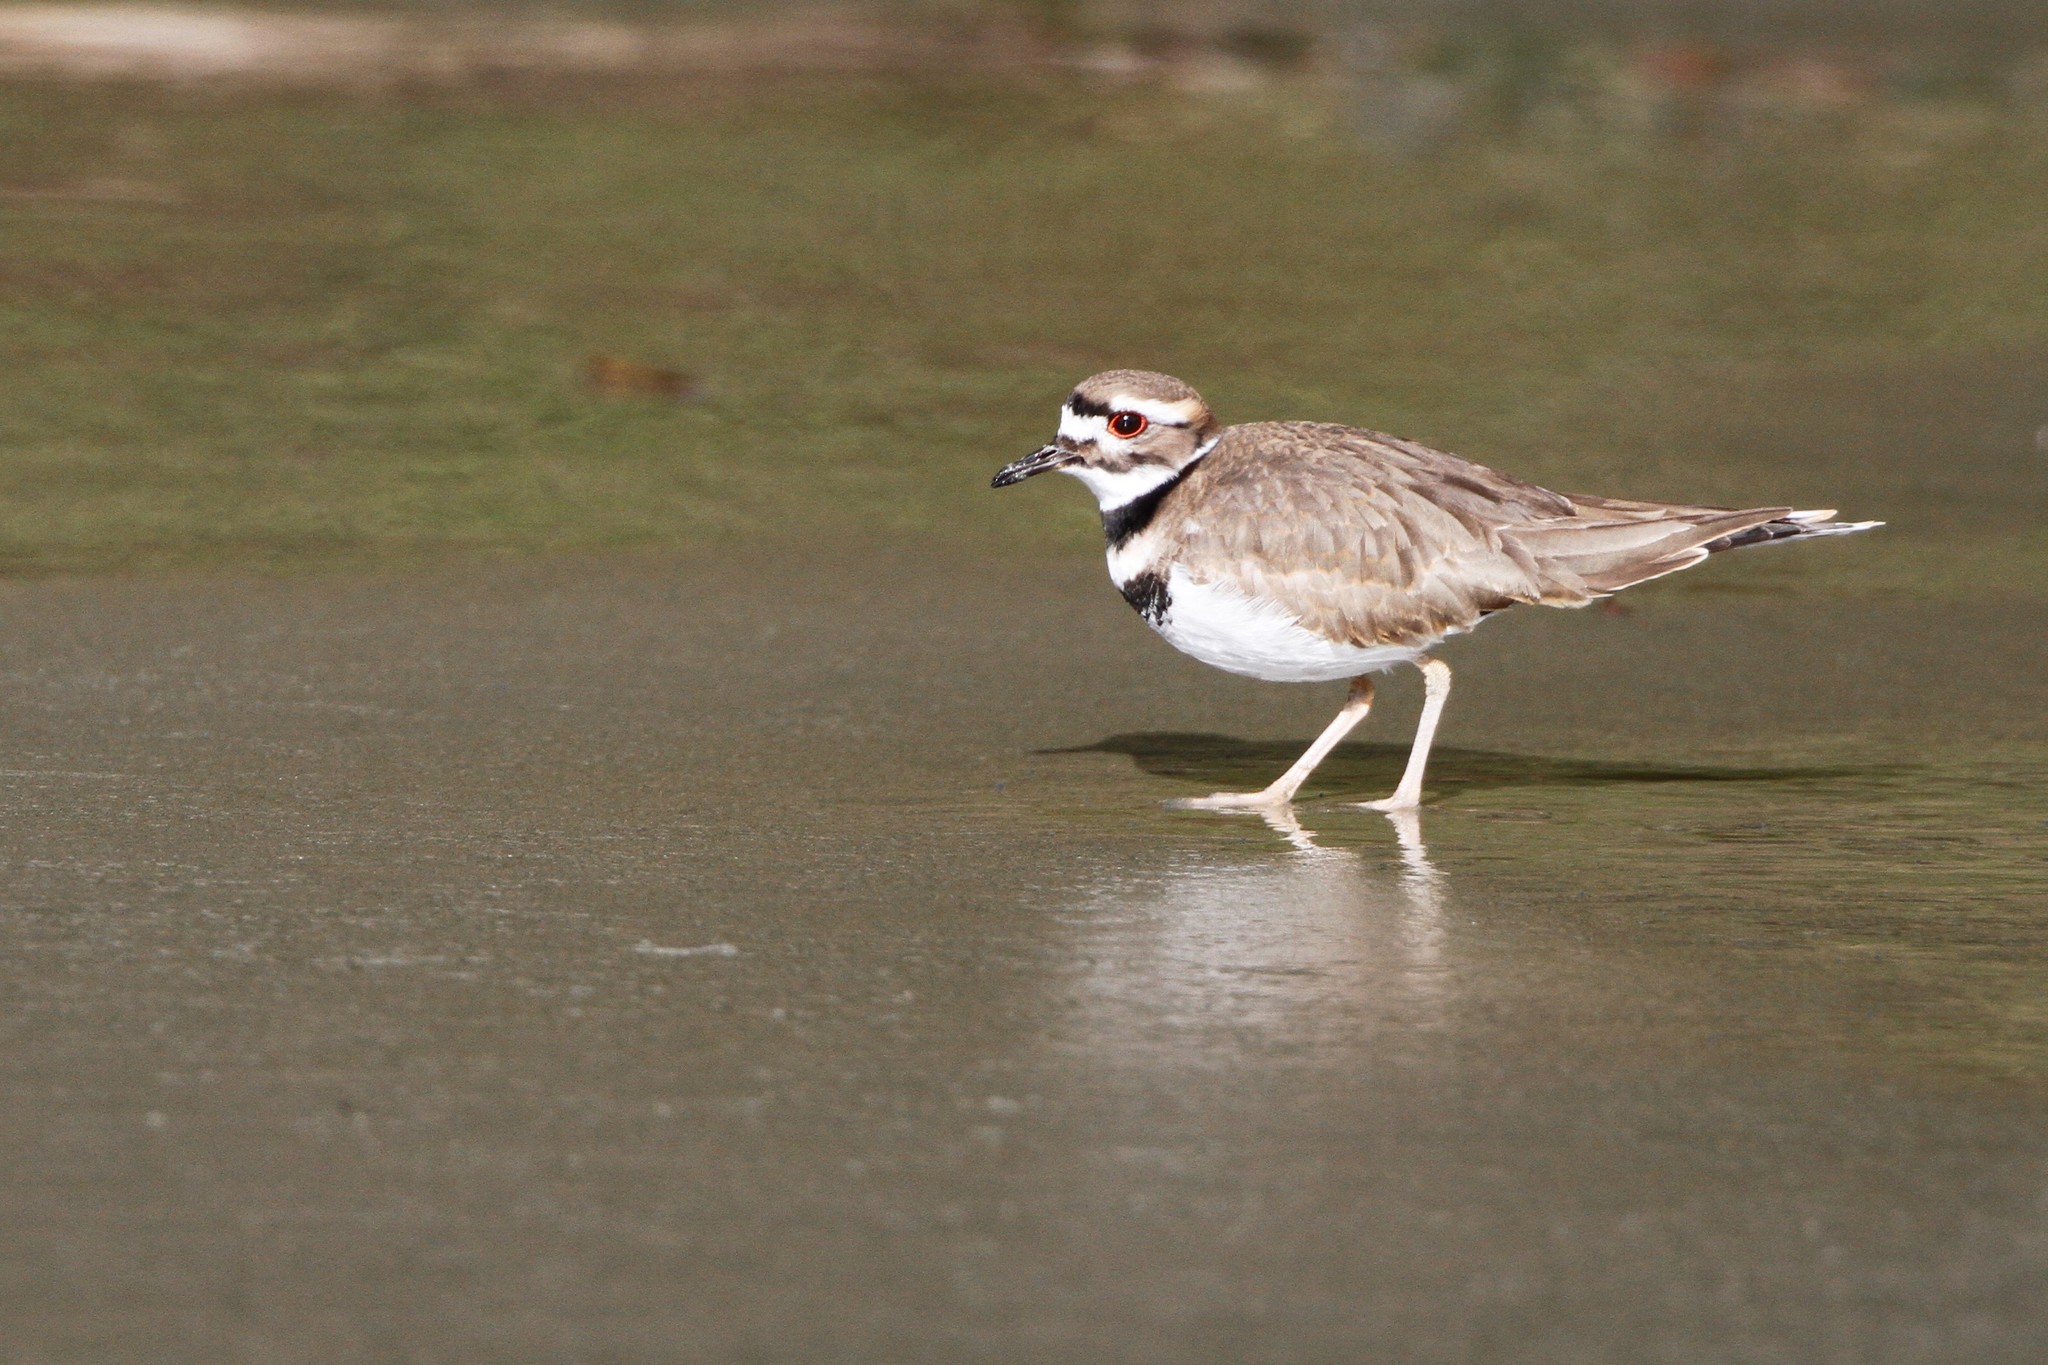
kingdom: Animalia
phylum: Chordata
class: Aves
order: Charadriiformes
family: Charadriidae
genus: Charadrius
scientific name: Charadrius vociferus
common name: Killdeer
